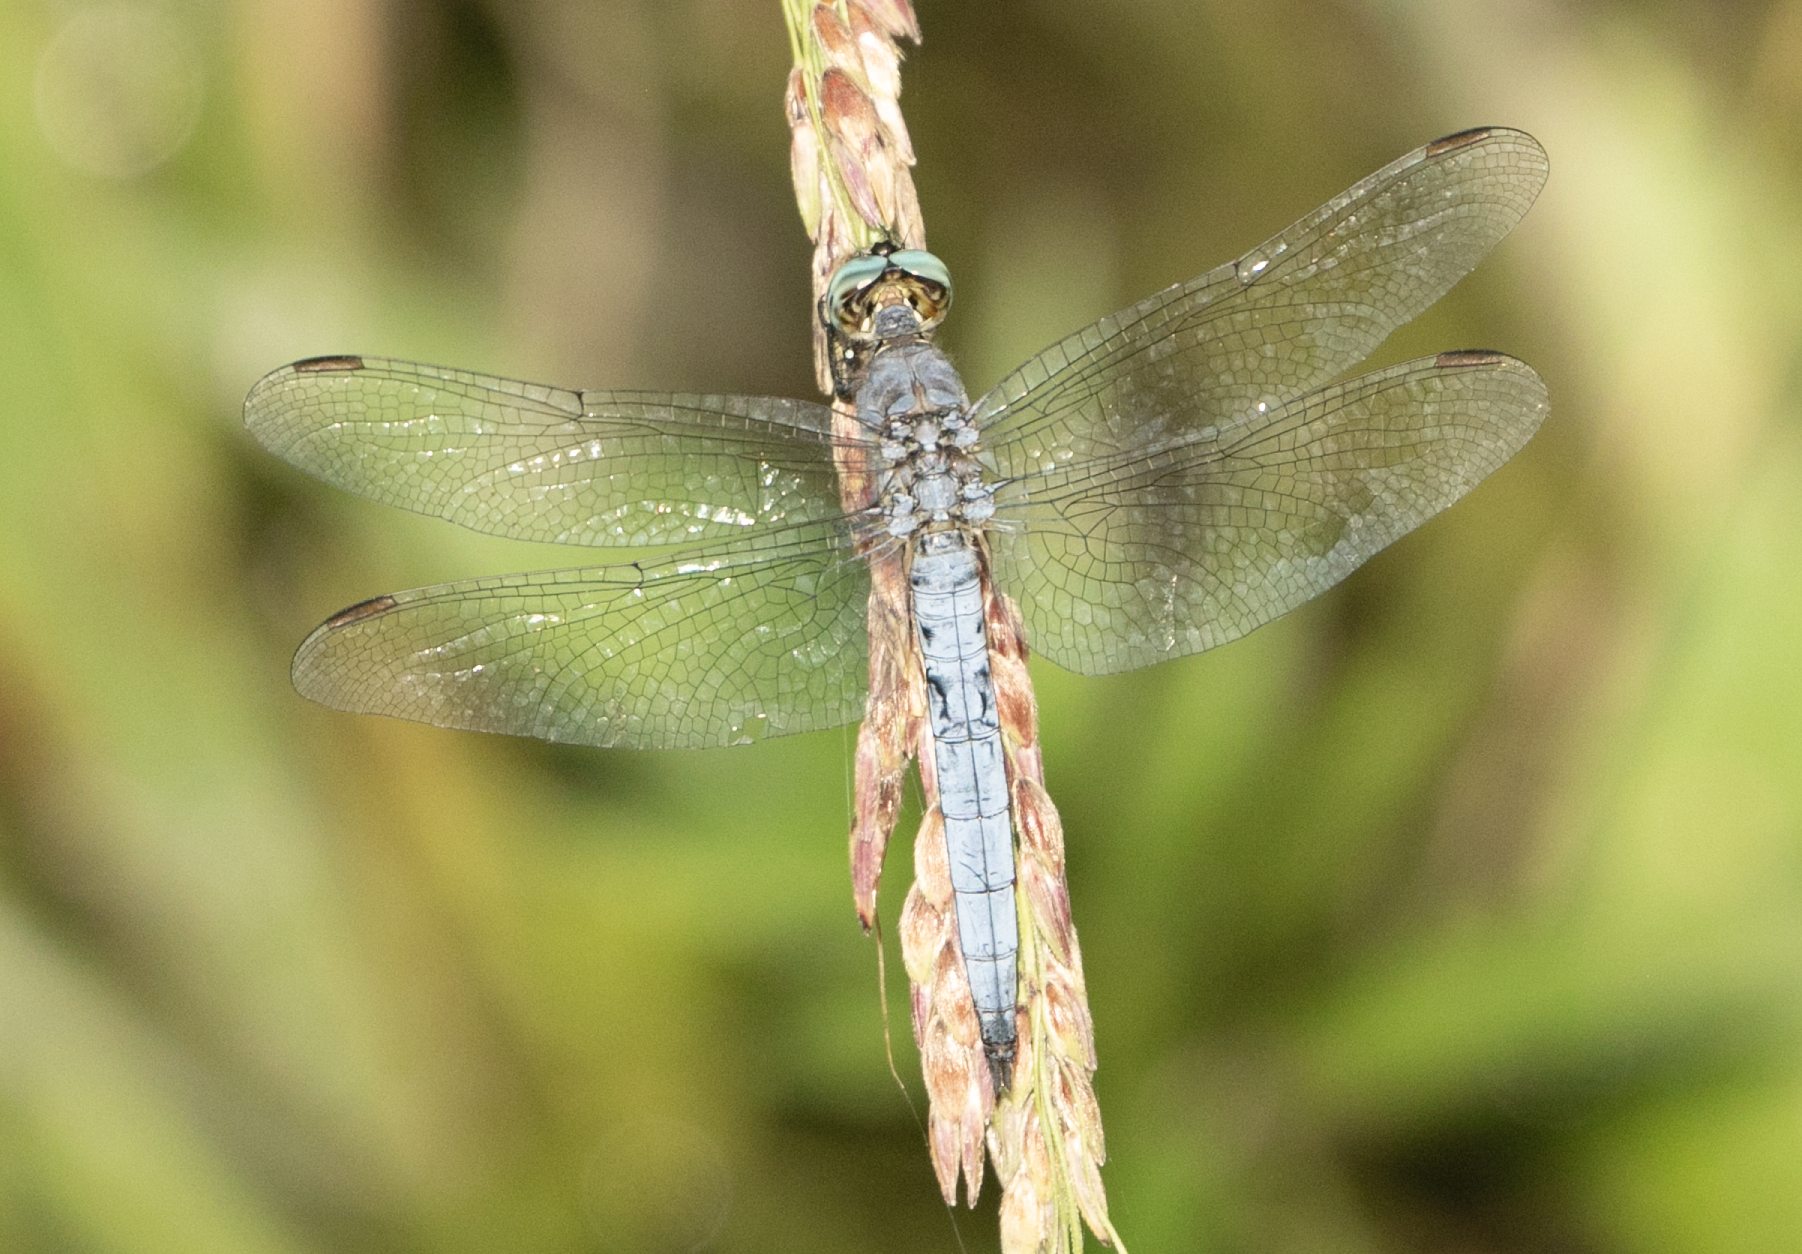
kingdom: Animalia
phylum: Arthropoda
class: Insecta
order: Odonata
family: Libellulidae
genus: Orthetrum
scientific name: Orthetrum coerulescens
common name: Keeled skimmer
